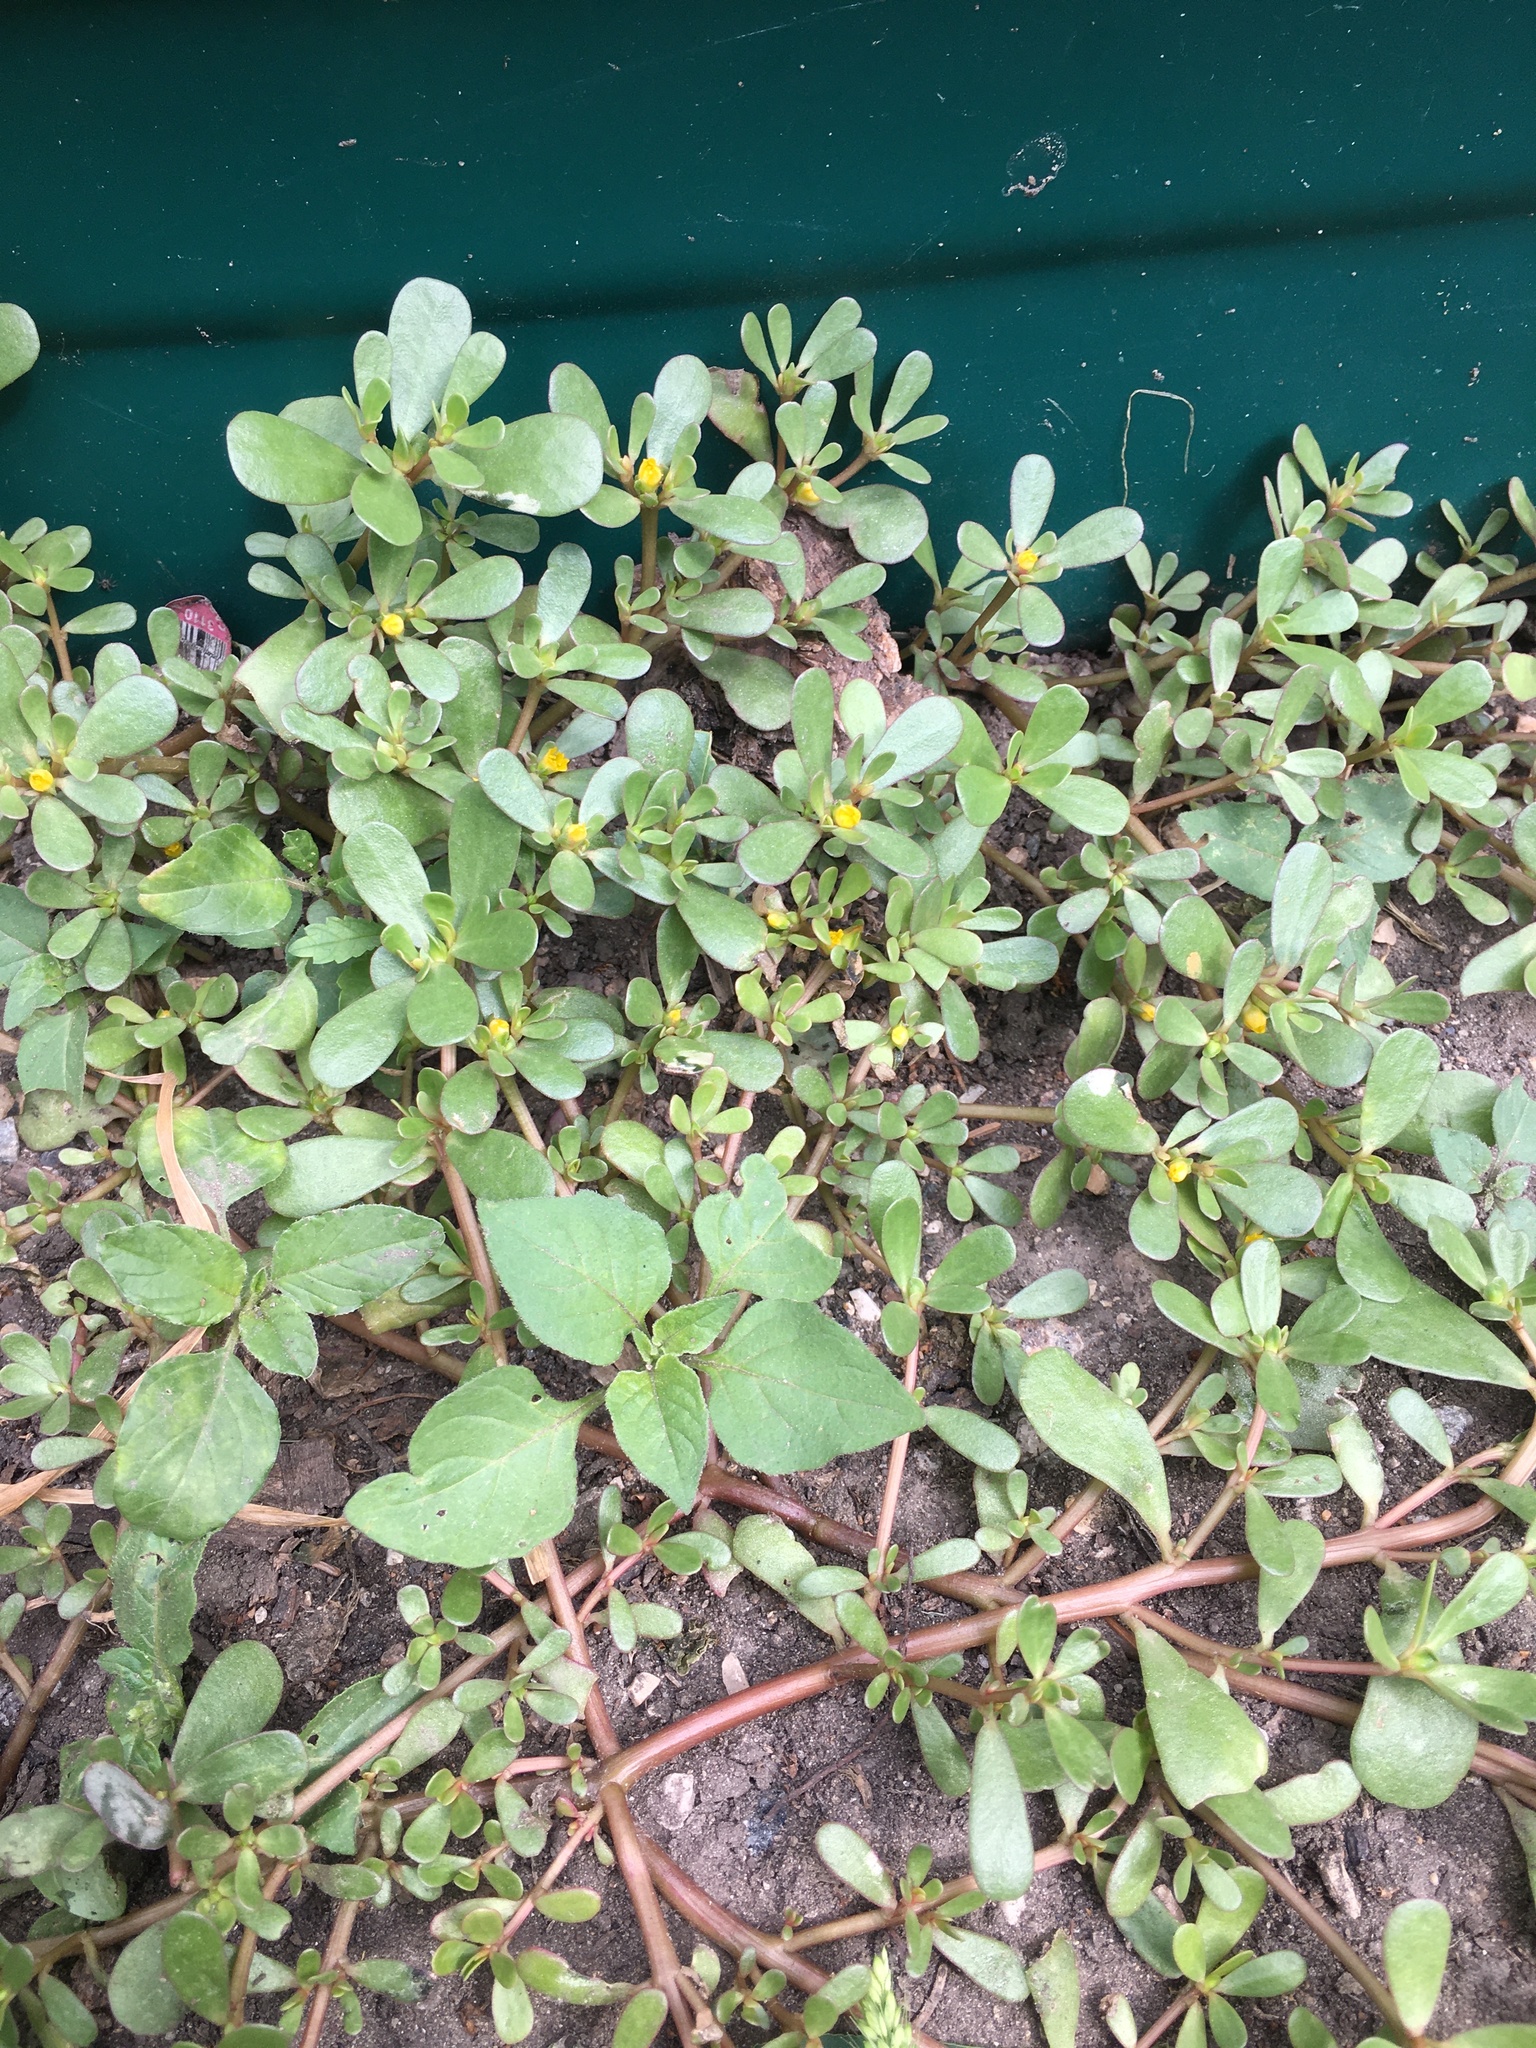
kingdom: Plantae
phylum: Tracheophyta
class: Magnoliopsida
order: Caryophyllales
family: Portulacaceae
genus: Portulaca
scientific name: Portulaca oleracea
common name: Common purslane
